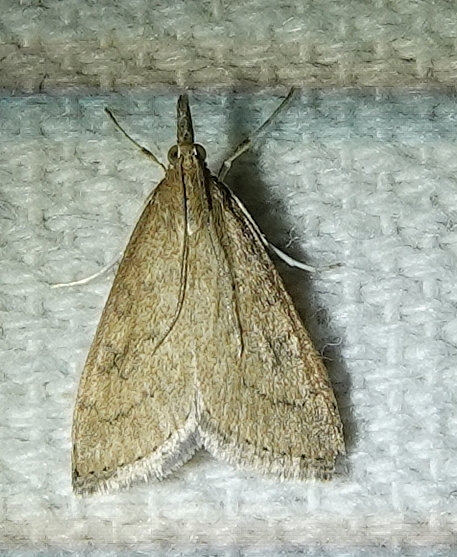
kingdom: Animalia
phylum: Arthropoda
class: Insecta
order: Lepidoptera
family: Crambidae
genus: Udea
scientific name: Udea rubigalis
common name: Celery leaftier moth
